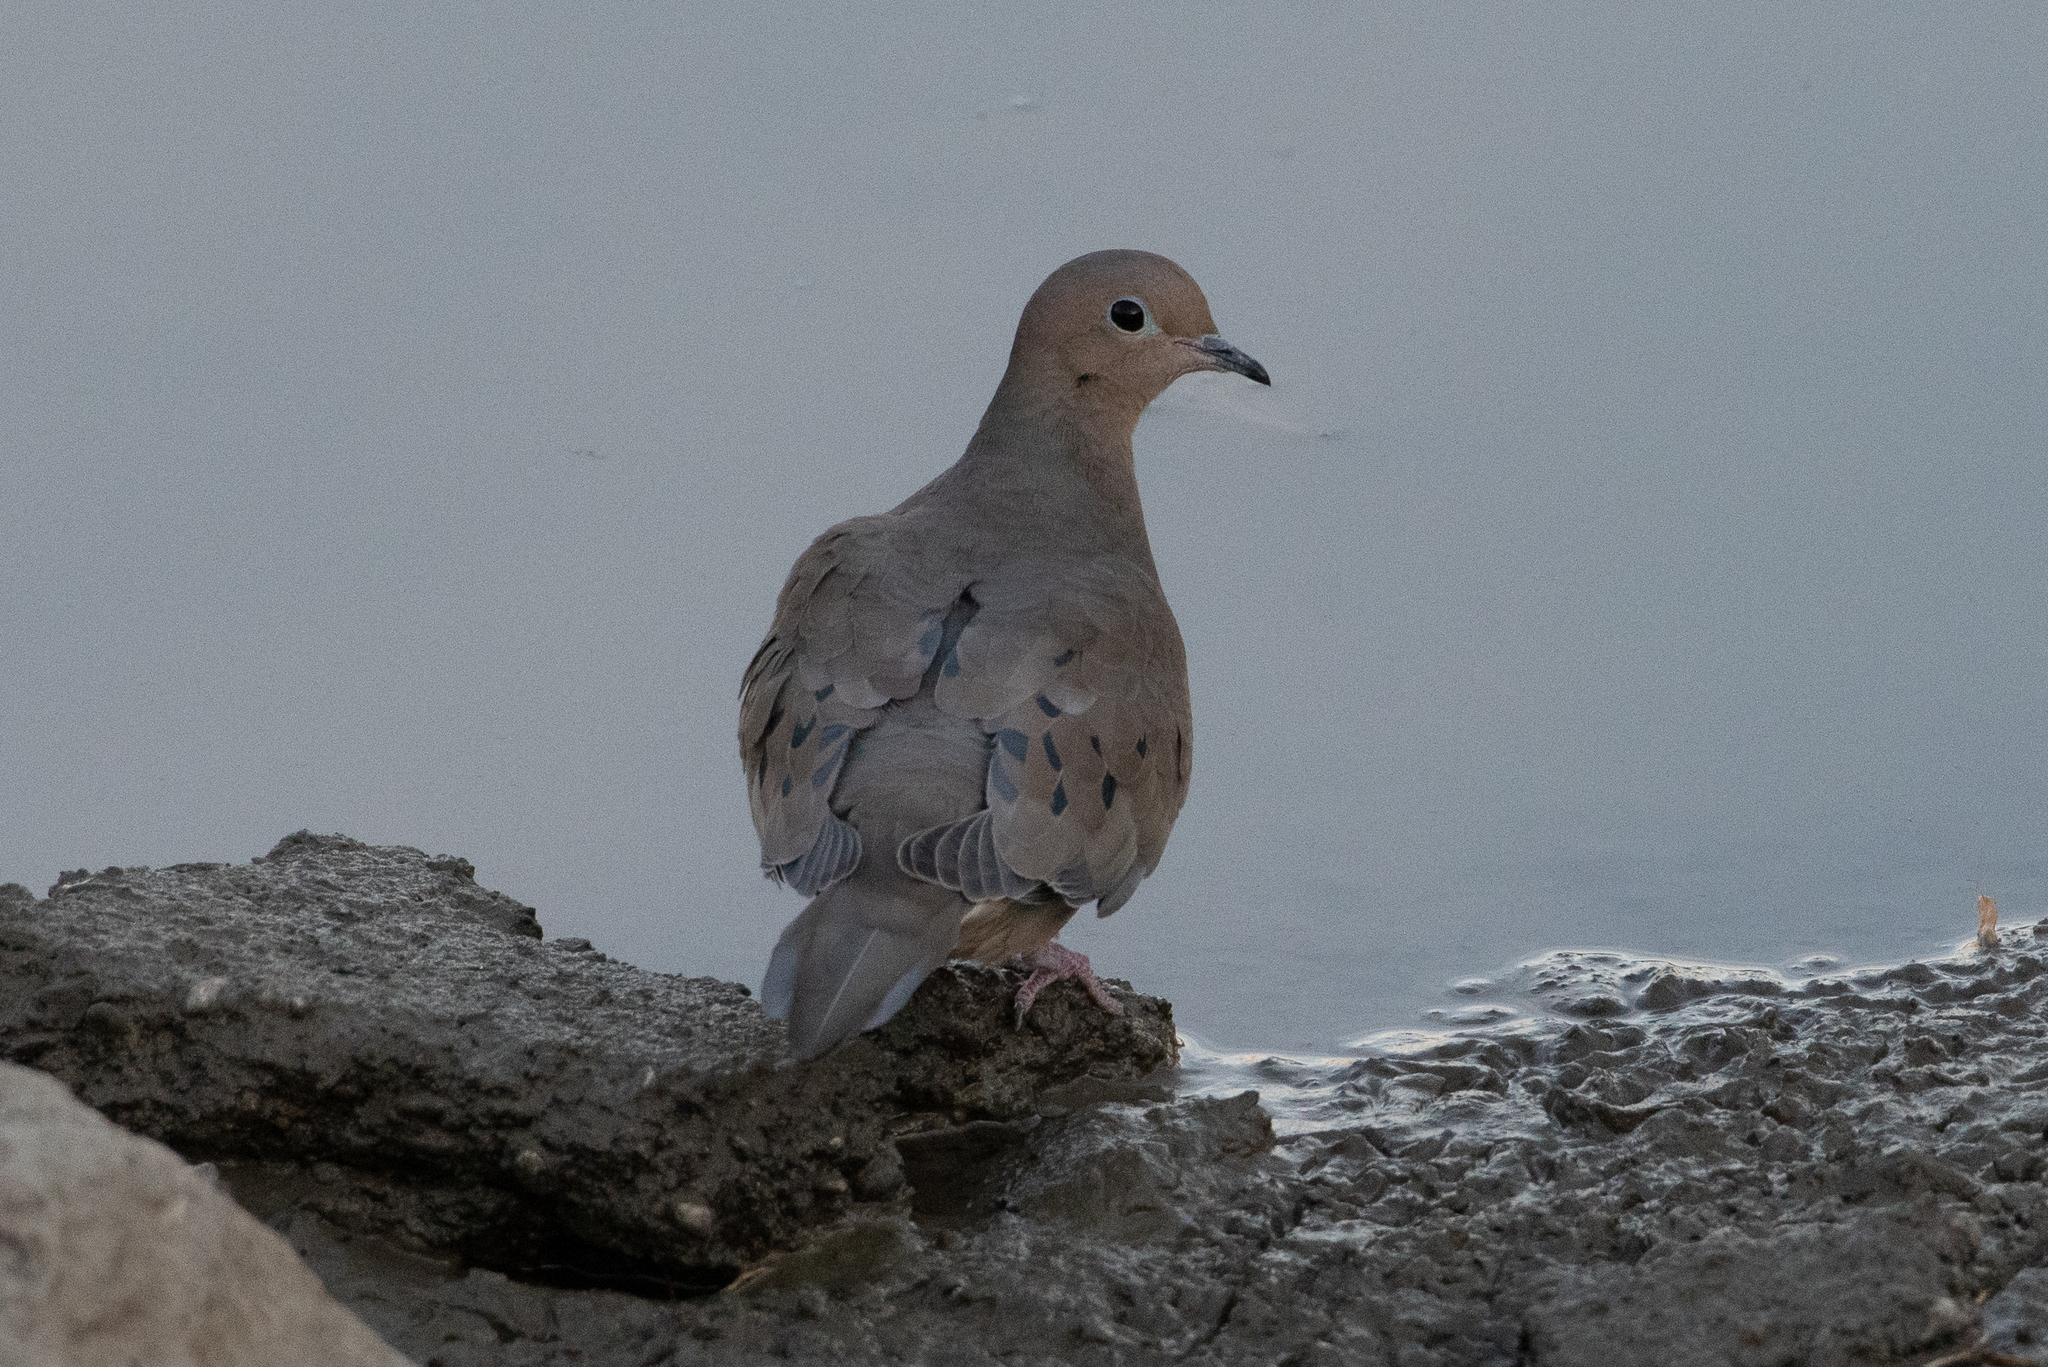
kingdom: Animalia
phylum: Chordata
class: Aves
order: Columbiformes
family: Columbidae
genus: Zenaida
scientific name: Zenaida macroura
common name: Mourning dove
